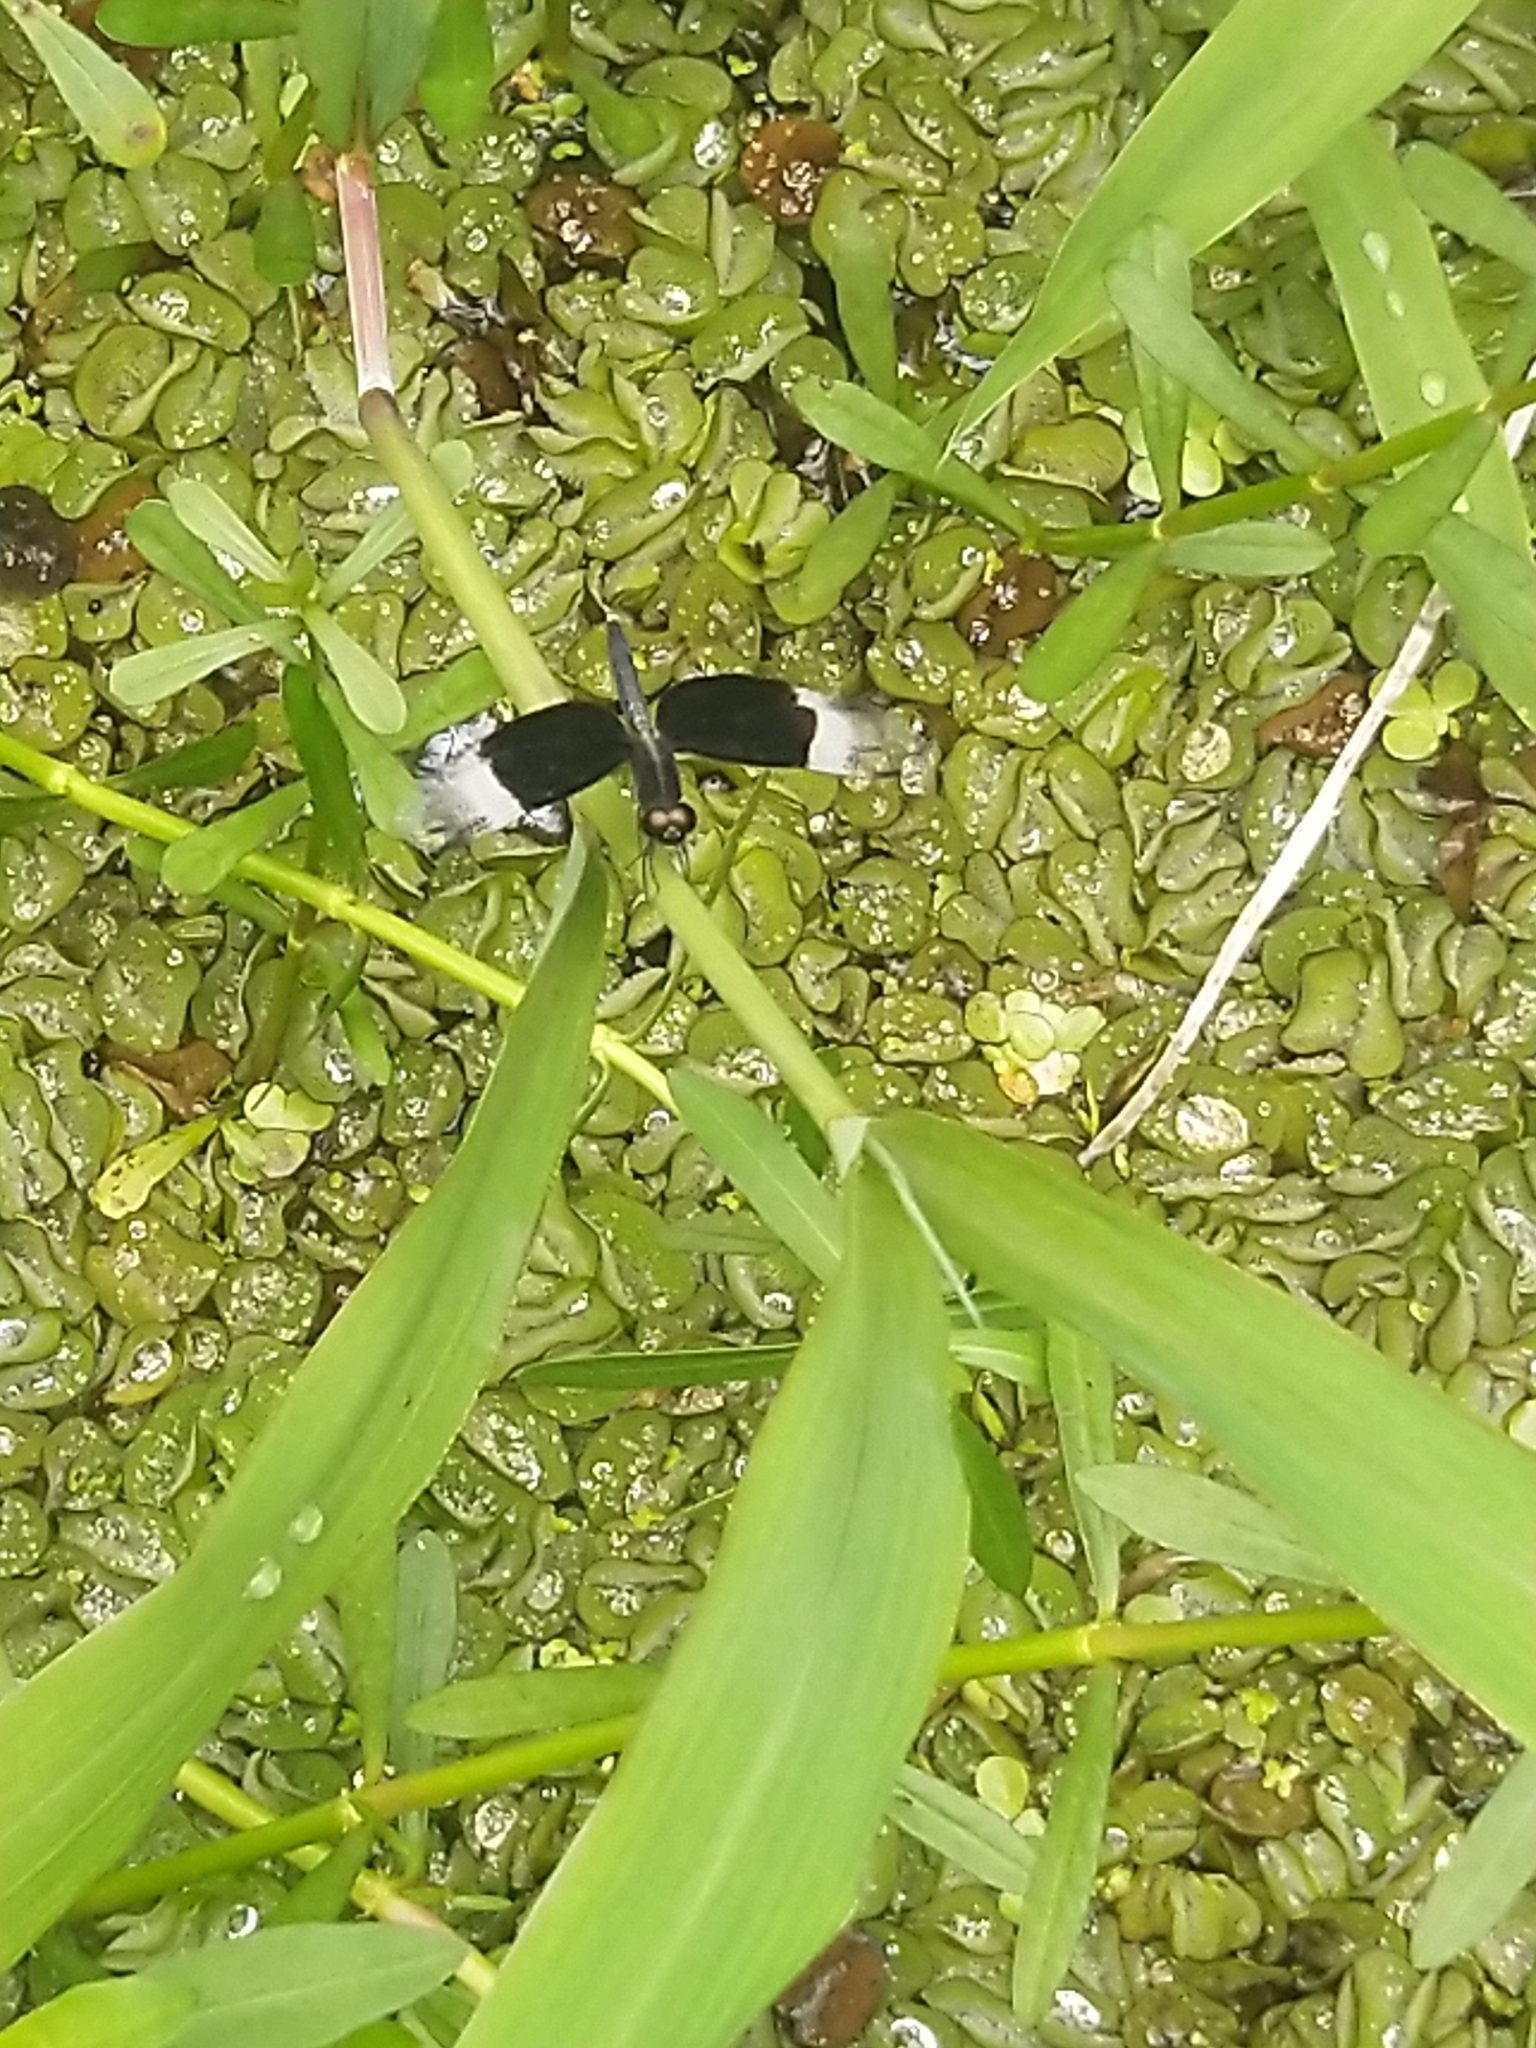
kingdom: Animalia
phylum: Arthropoda
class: Insecta
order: Odonata
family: Libellulidae
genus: Neurothemis
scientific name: Neurothemis tullia
